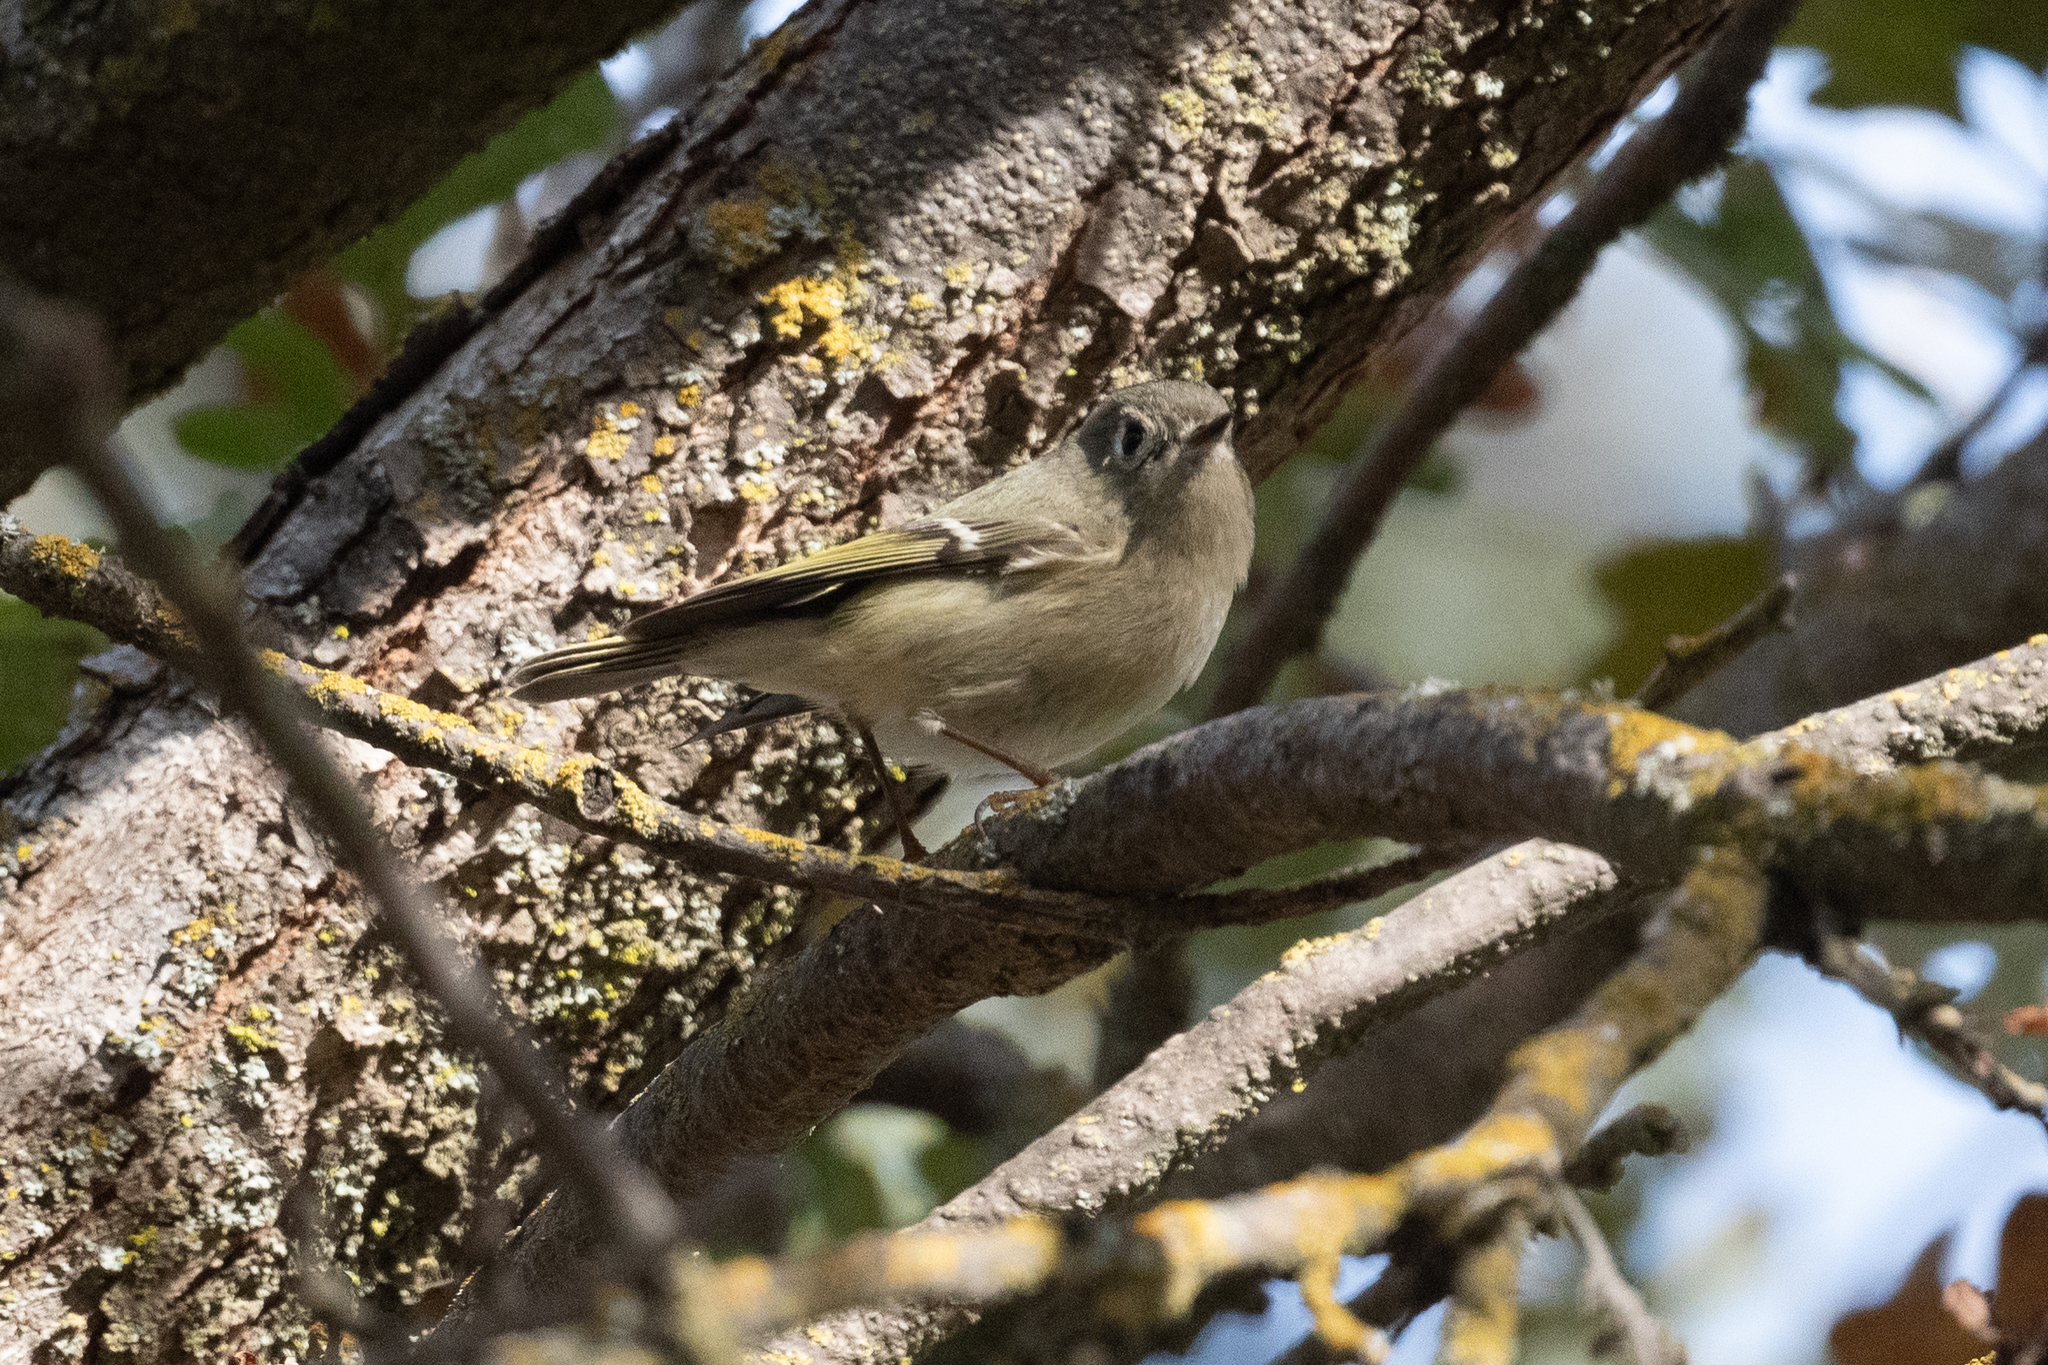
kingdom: Animalia
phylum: Chordata
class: Aves
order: Passeriformes
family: Regulidae
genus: Regulus
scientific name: Regulus calendula
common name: Ruby-crowned kinglet
